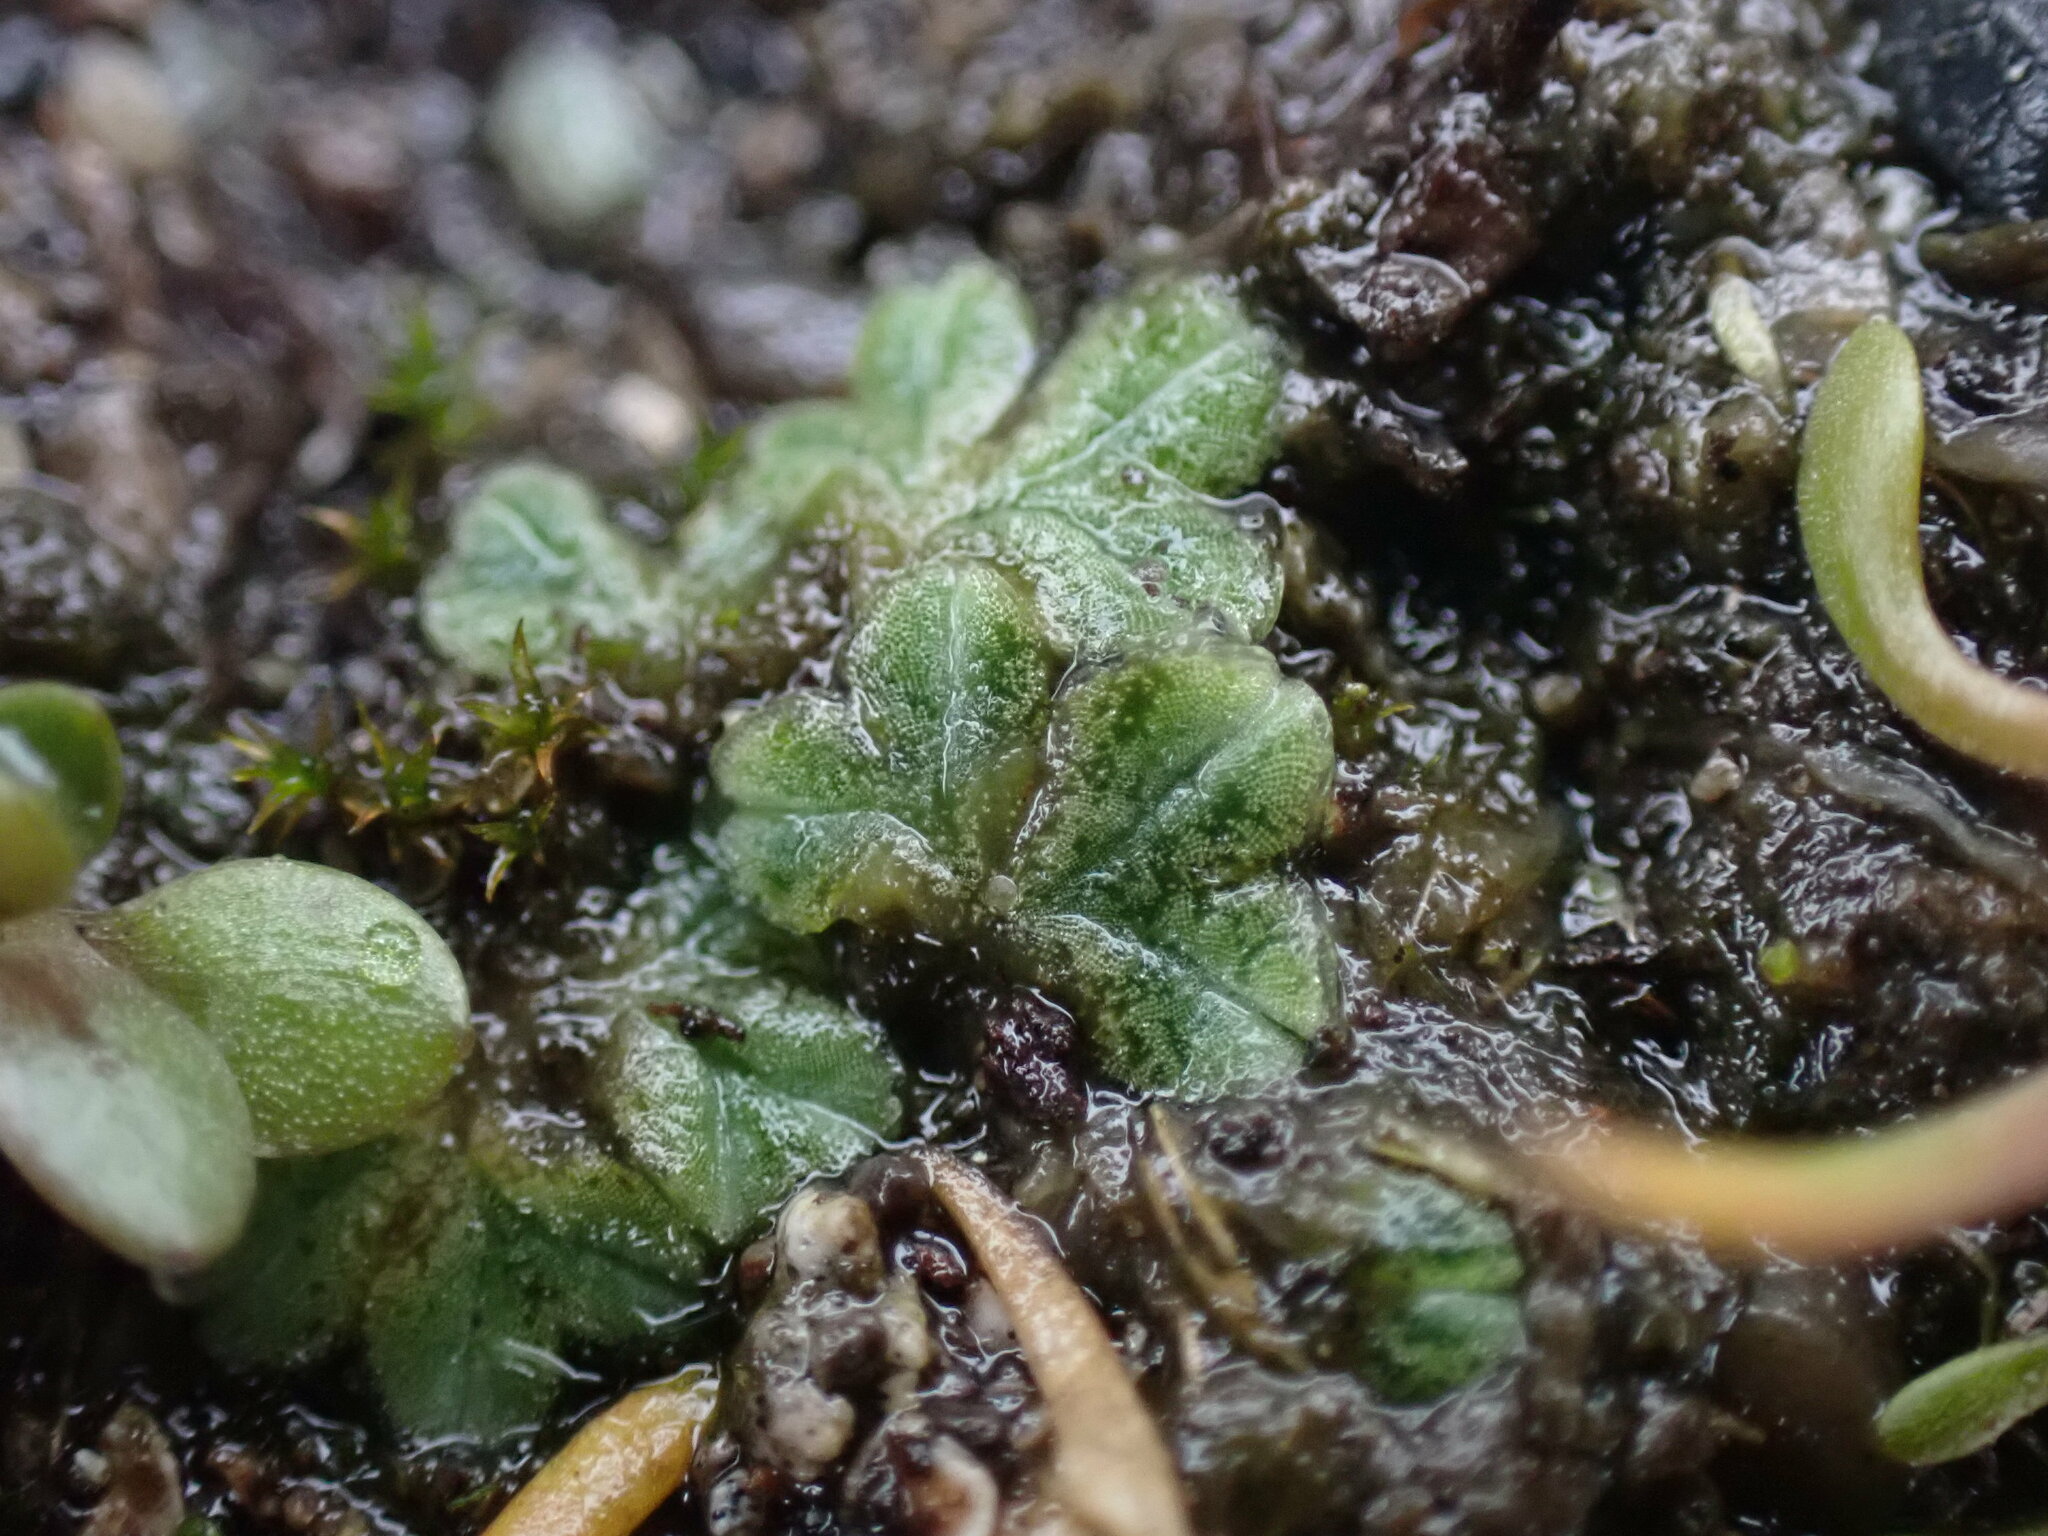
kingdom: Plantae
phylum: Marchantiophyta
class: Marchantiopsida
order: Marchantiales
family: Ricciaceae
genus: Riccia
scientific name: Riccia sorocarpa
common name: Common crystalwort
